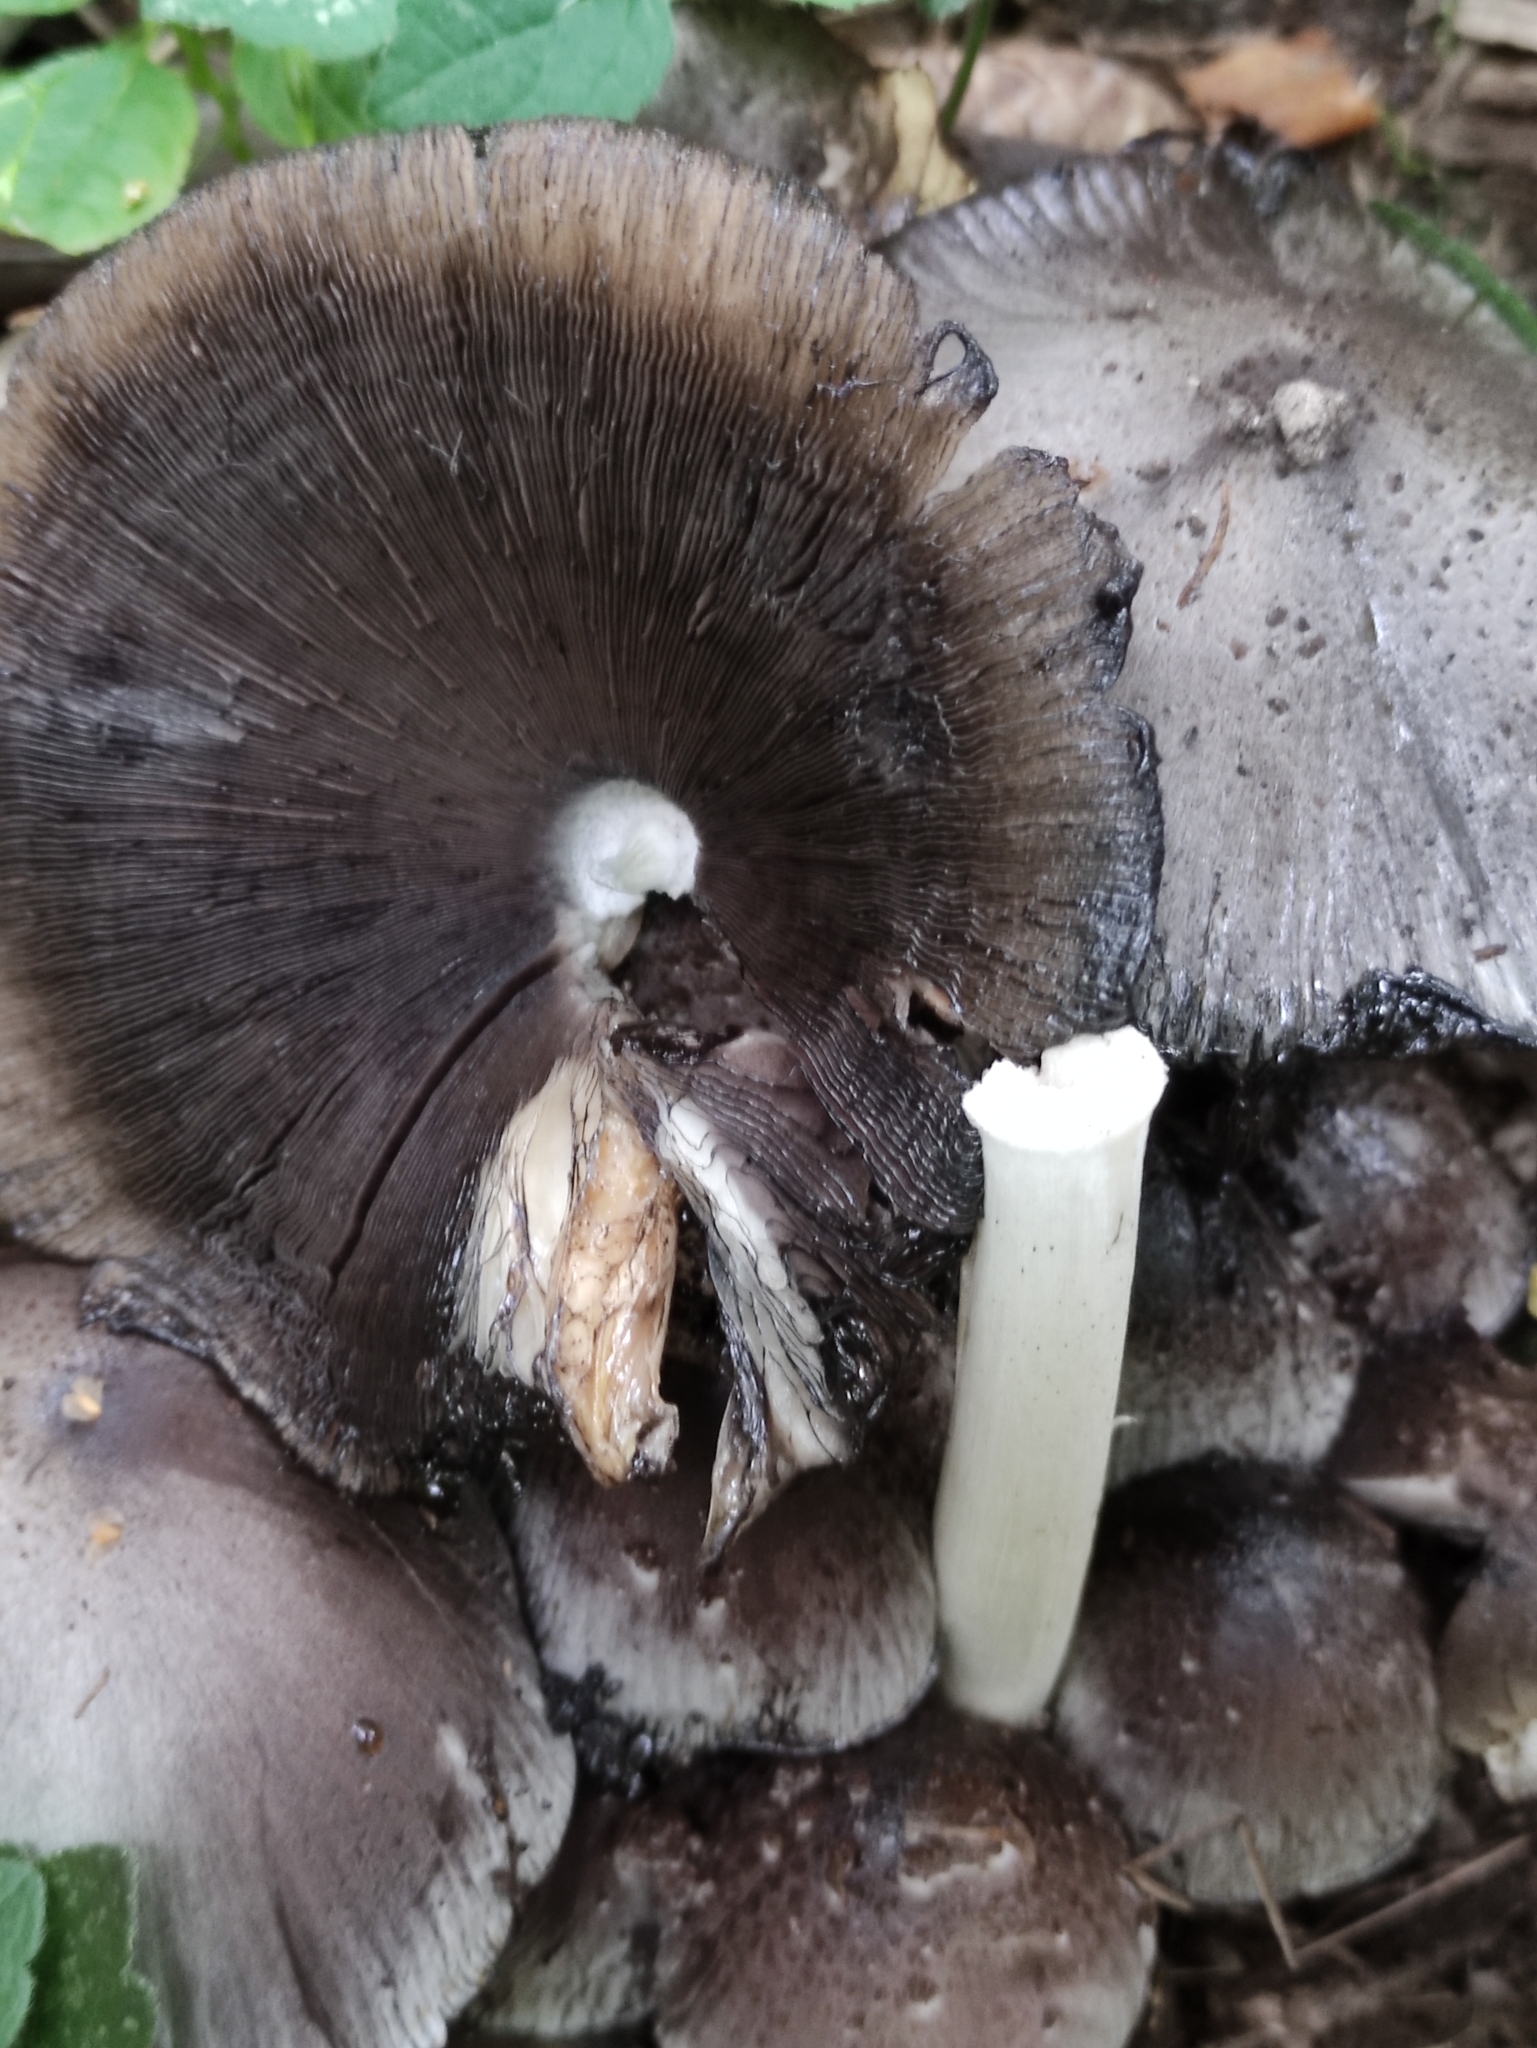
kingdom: Fungi
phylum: Basidiomycota
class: Agaricomycetes
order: Agaricales
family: Psathyrellaceae
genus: Coprinopsis
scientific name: Coprinopsis atramentaria
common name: Common ink-cap
